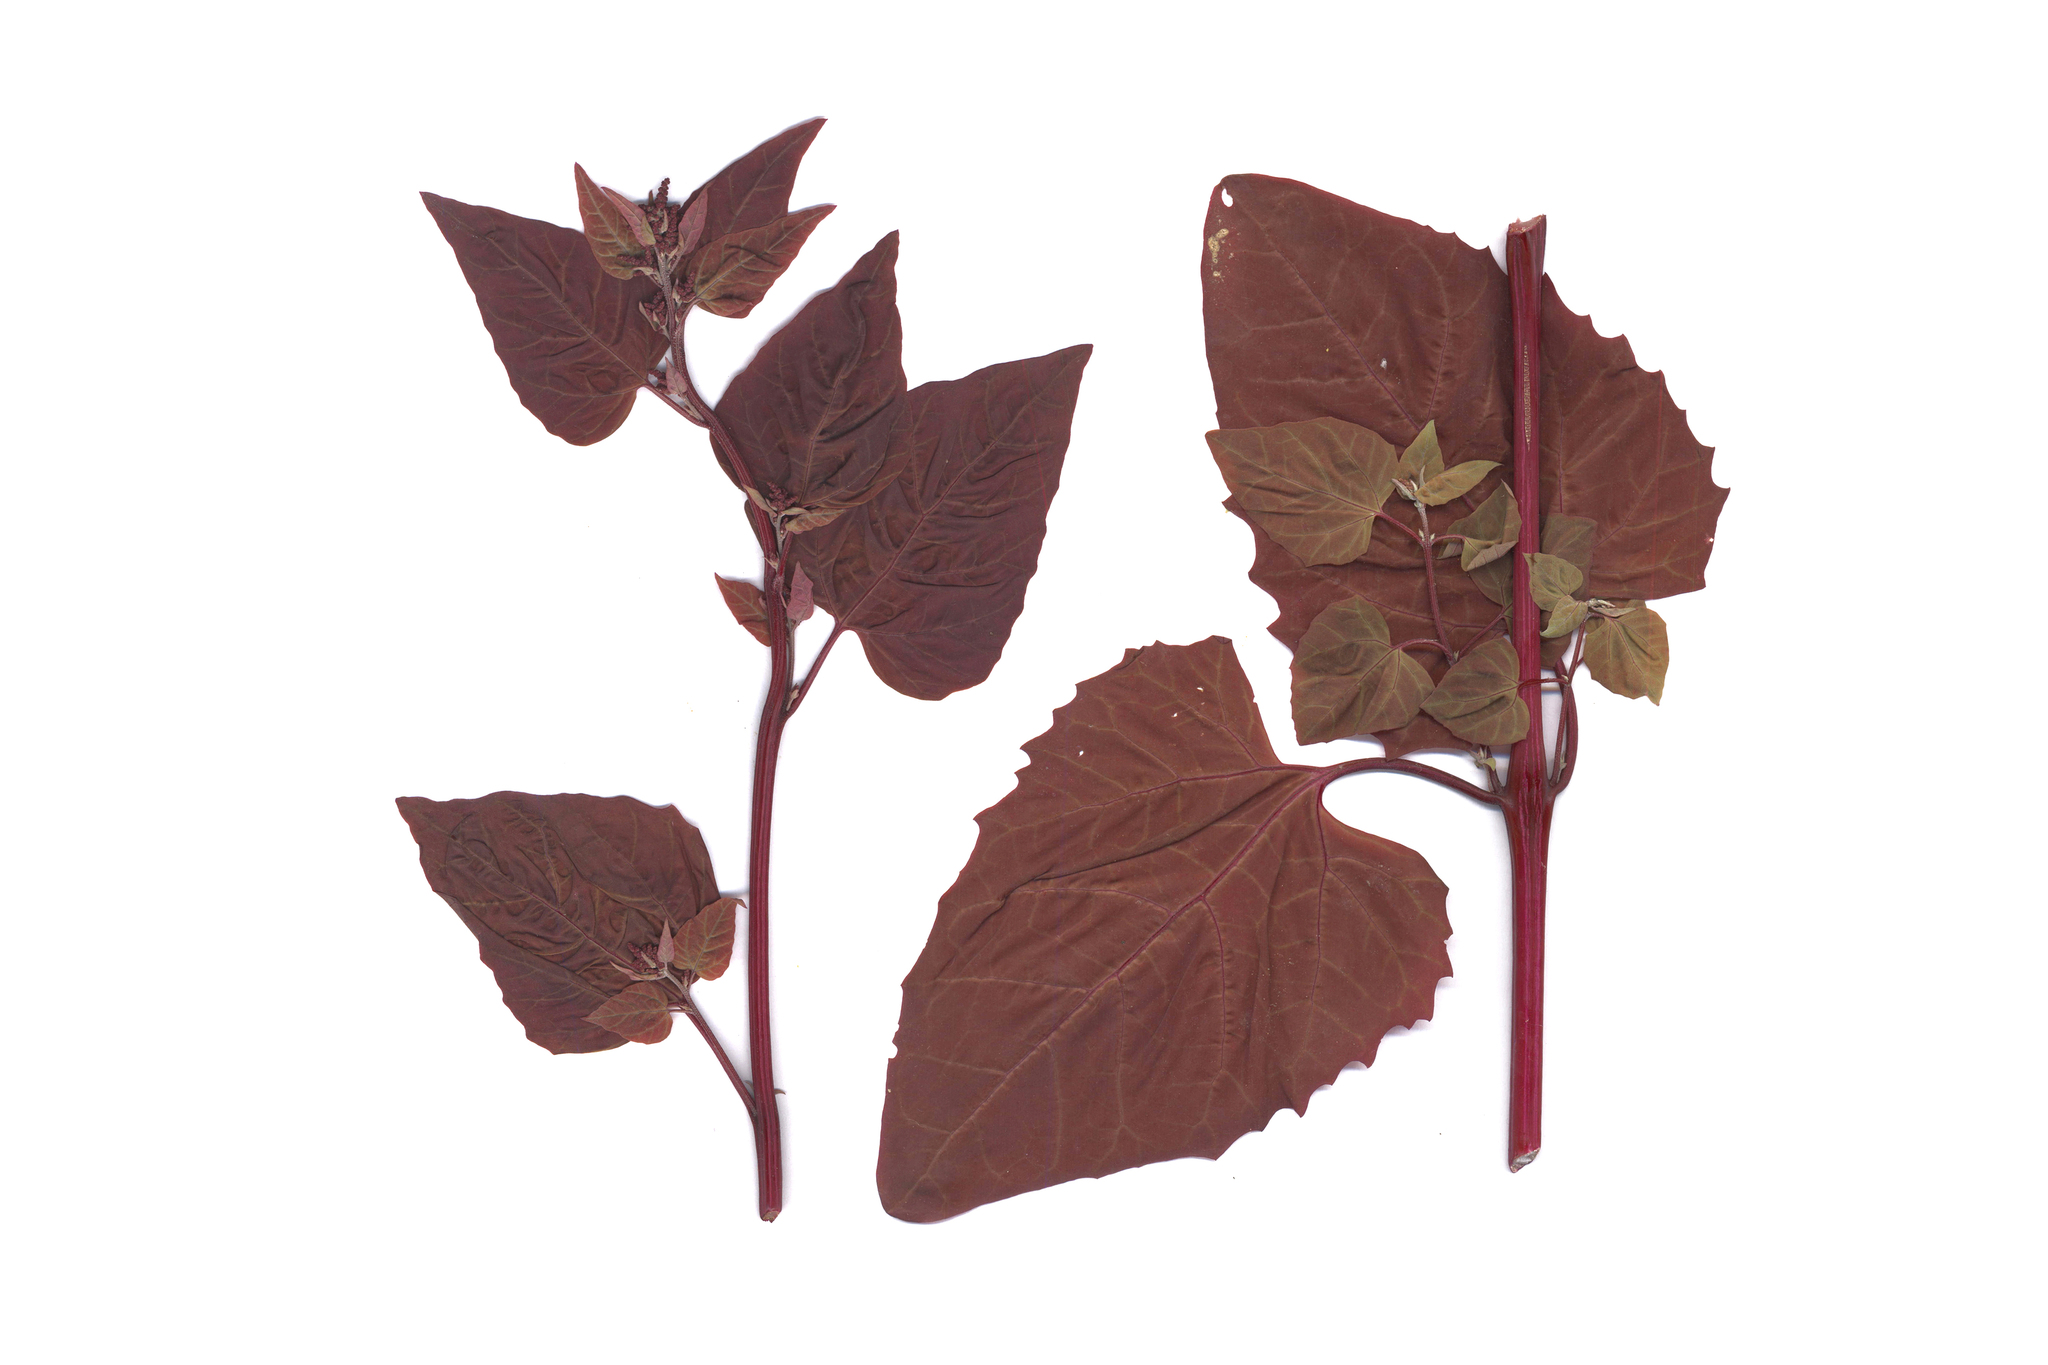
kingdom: Plantae
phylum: Tracheophyta
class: Magnoliopsida
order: Caryophyllales
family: Amaranthaceae
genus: Atriplex
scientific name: Atriplex hortensis
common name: Garden orache
